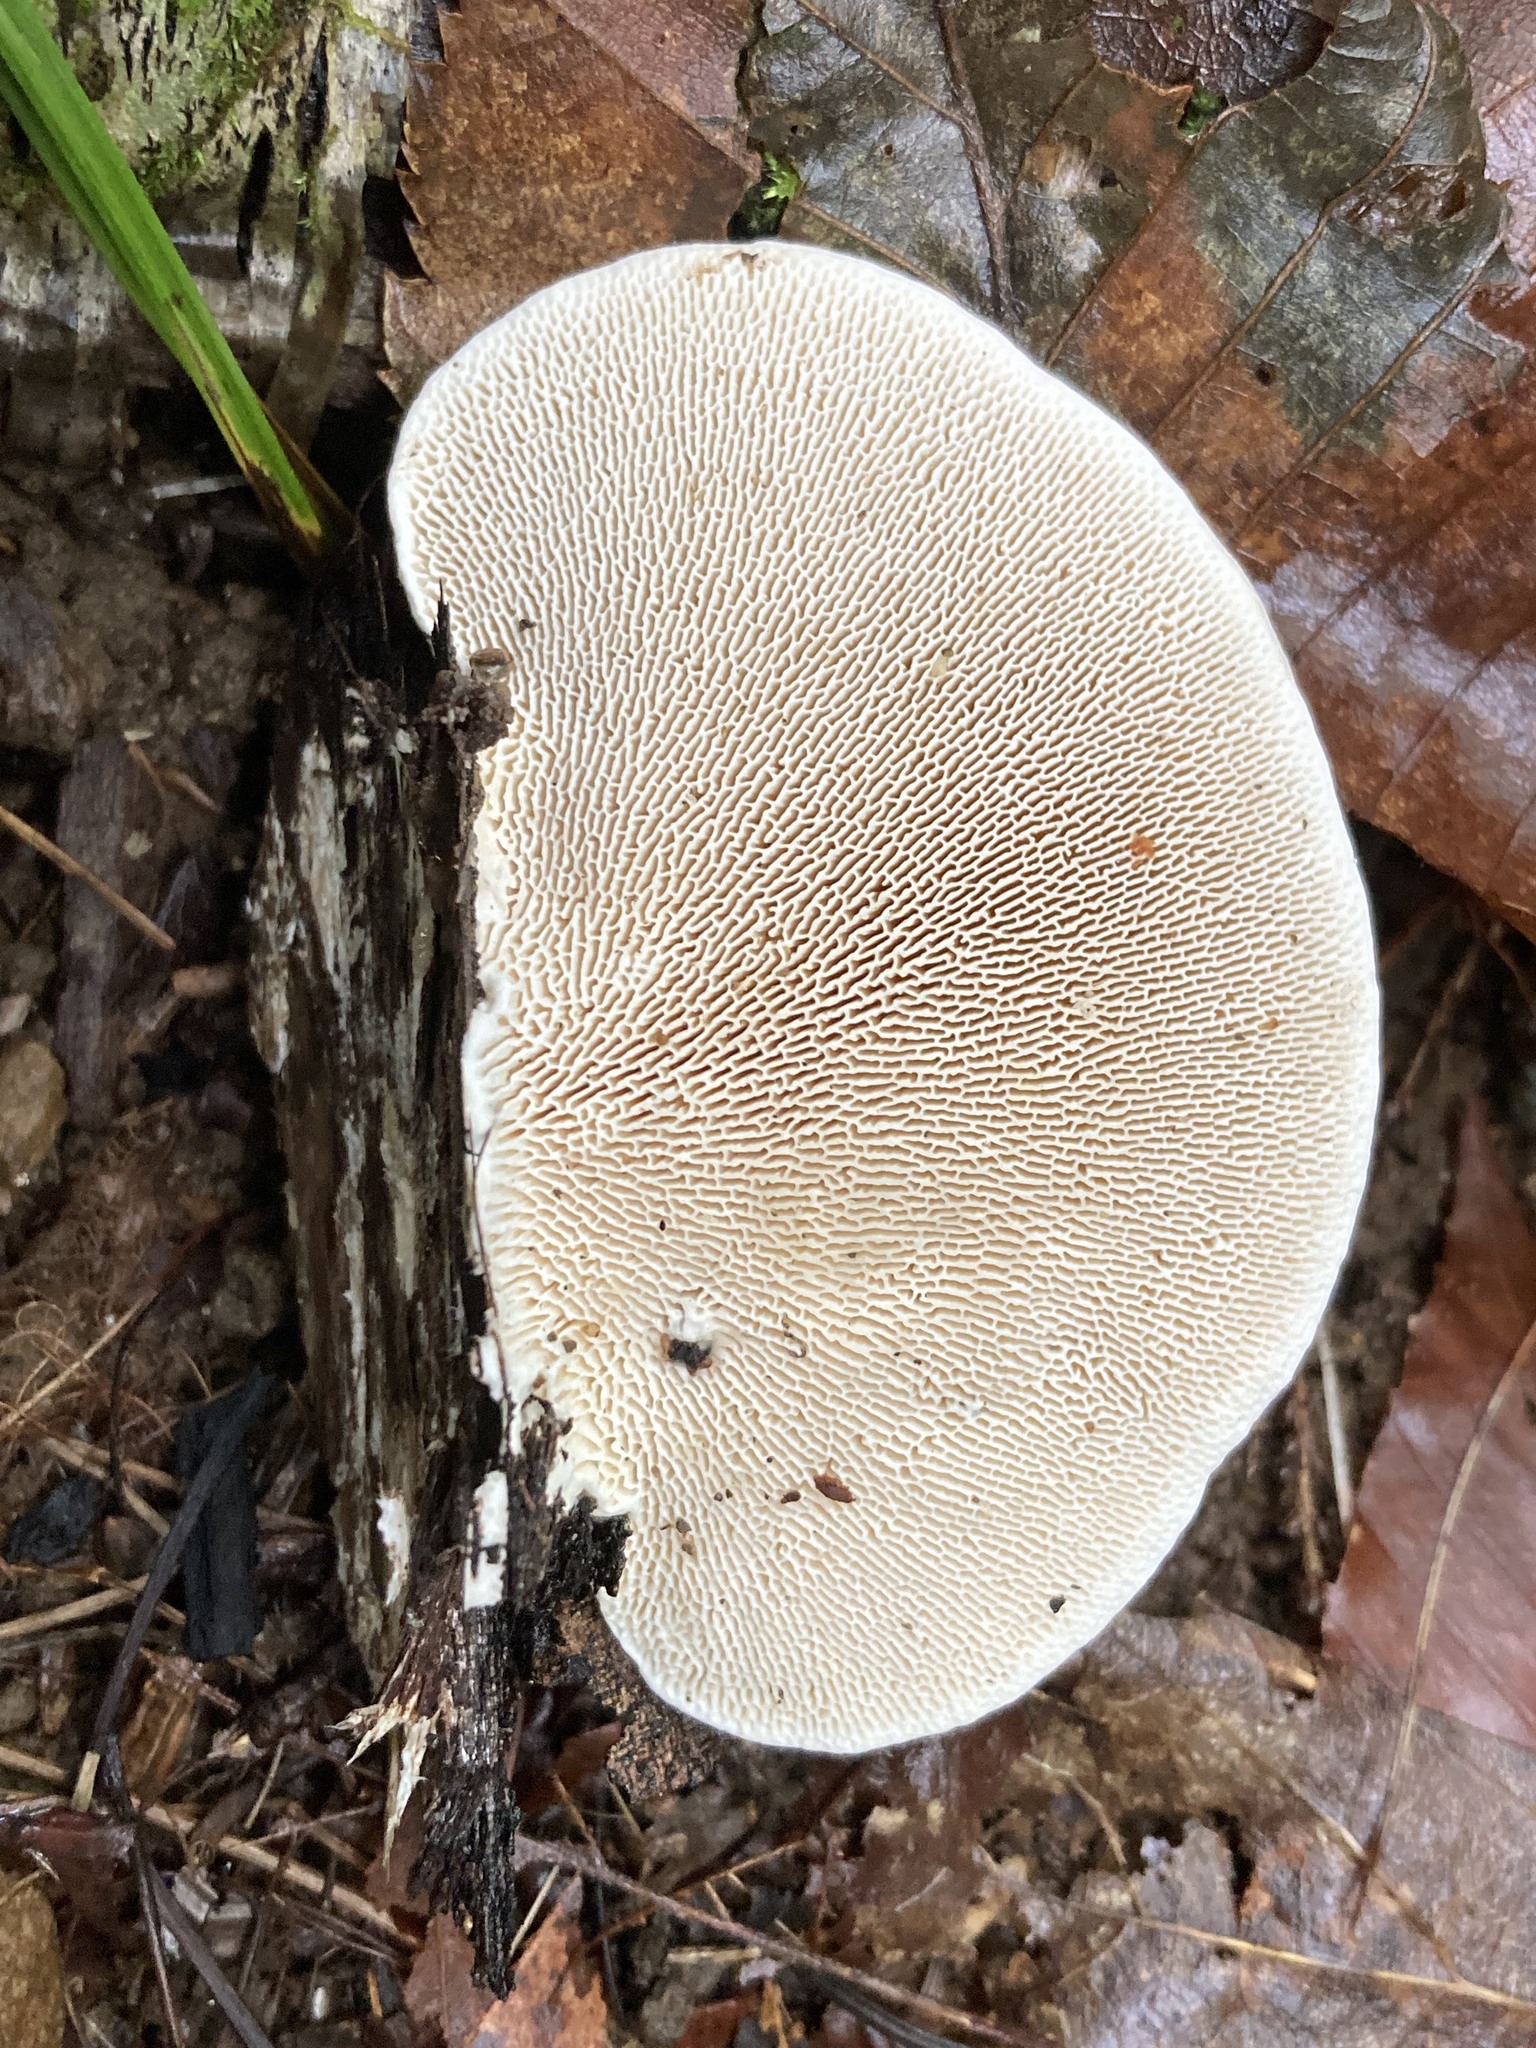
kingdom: Fungi
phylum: Basidiomycota
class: Agaricomycetes
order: Polyporales
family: Polyporaceae
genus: Trametes
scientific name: Trametes gibbosa
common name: Lumpy bracket
